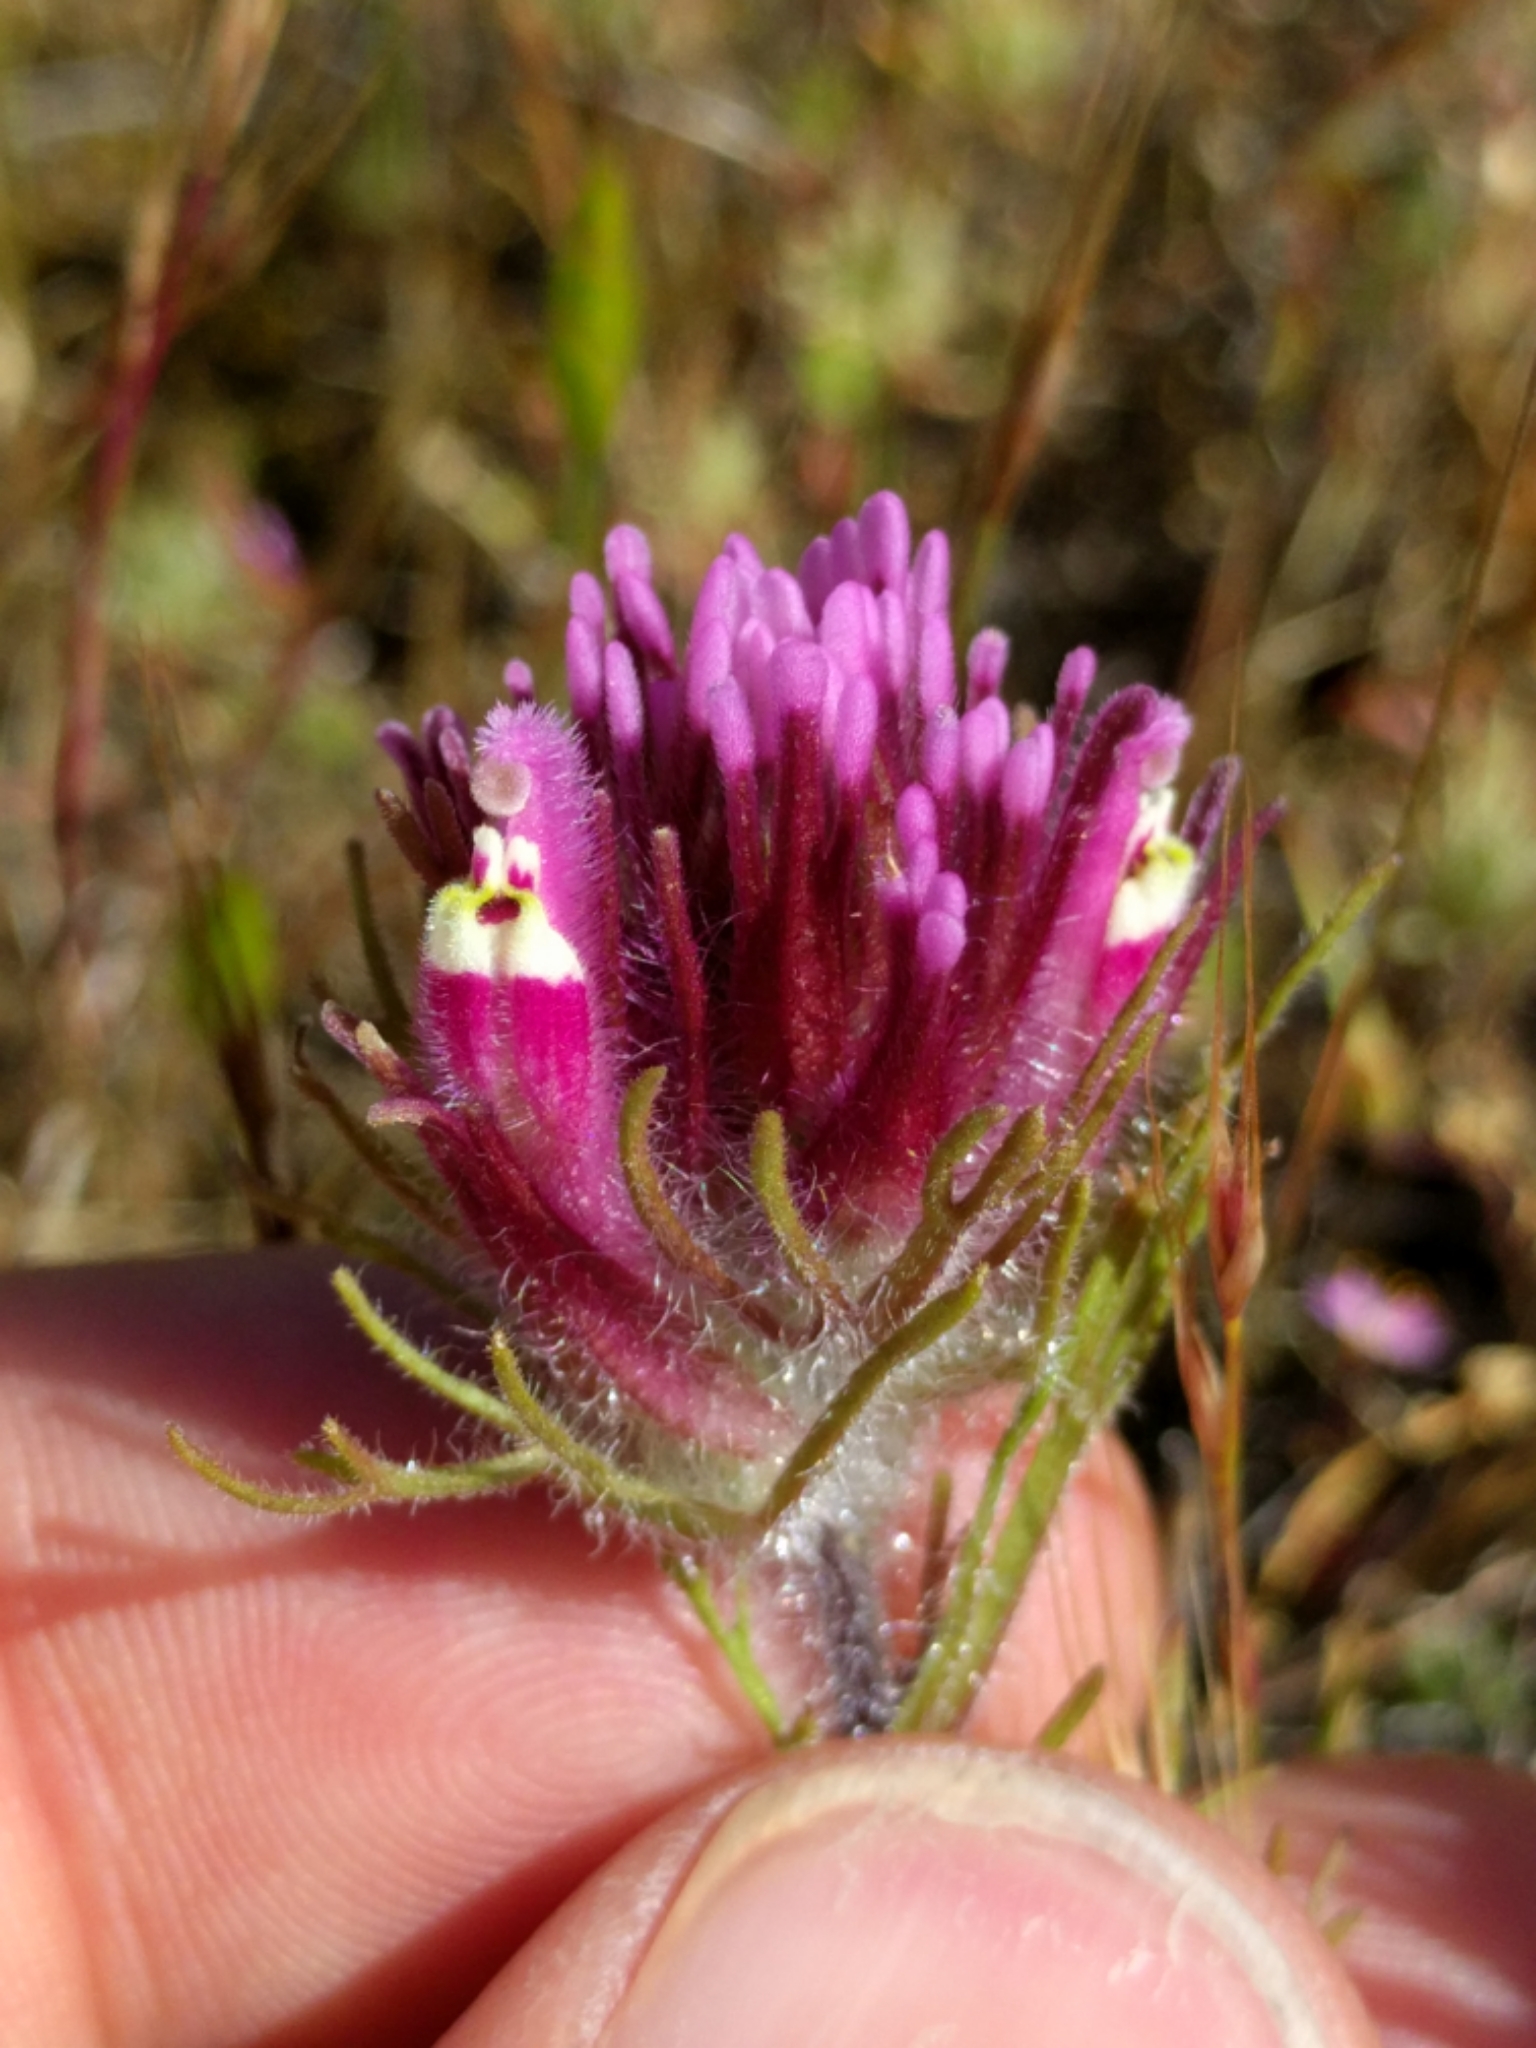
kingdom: Plantae
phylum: Tracheophyta
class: Magnoliopsida
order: Lamiales
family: Orobanchaceae
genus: Castilleja
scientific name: Castilleja exserta
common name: Purple owl-clover
